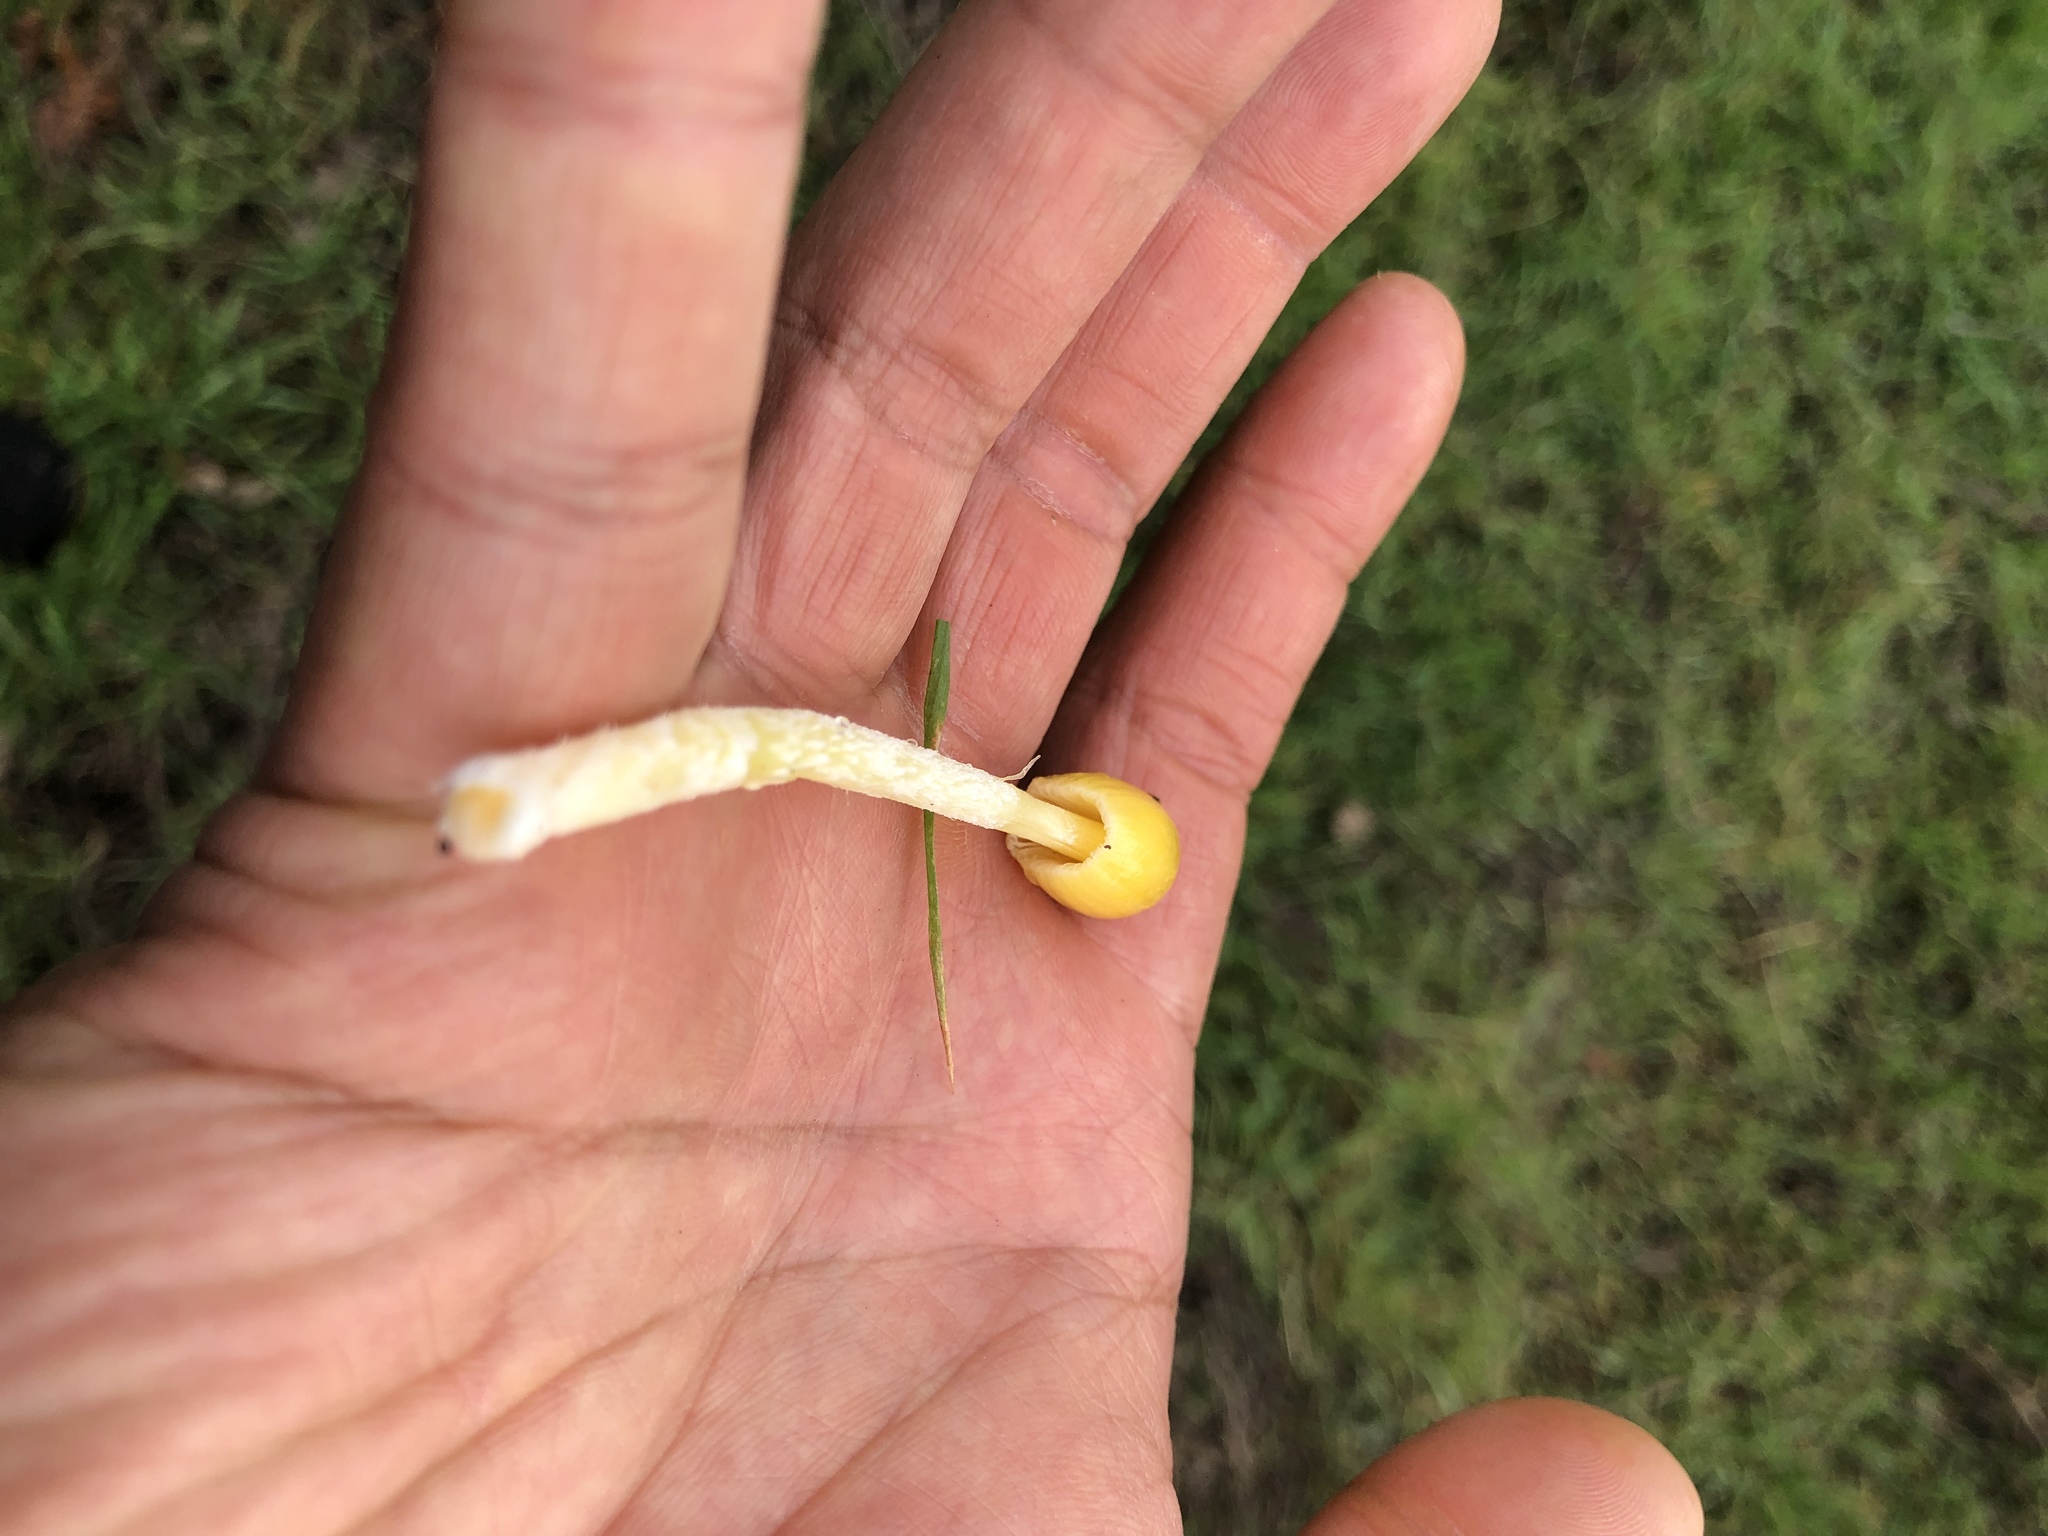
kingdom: Fungi
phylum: Basidiomycota
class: Agaricomycetes
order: Agaricales
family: Bolbitiaceae
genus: Bolbitius
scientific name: Bolbitius titubans
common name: Yellow fieldcap
